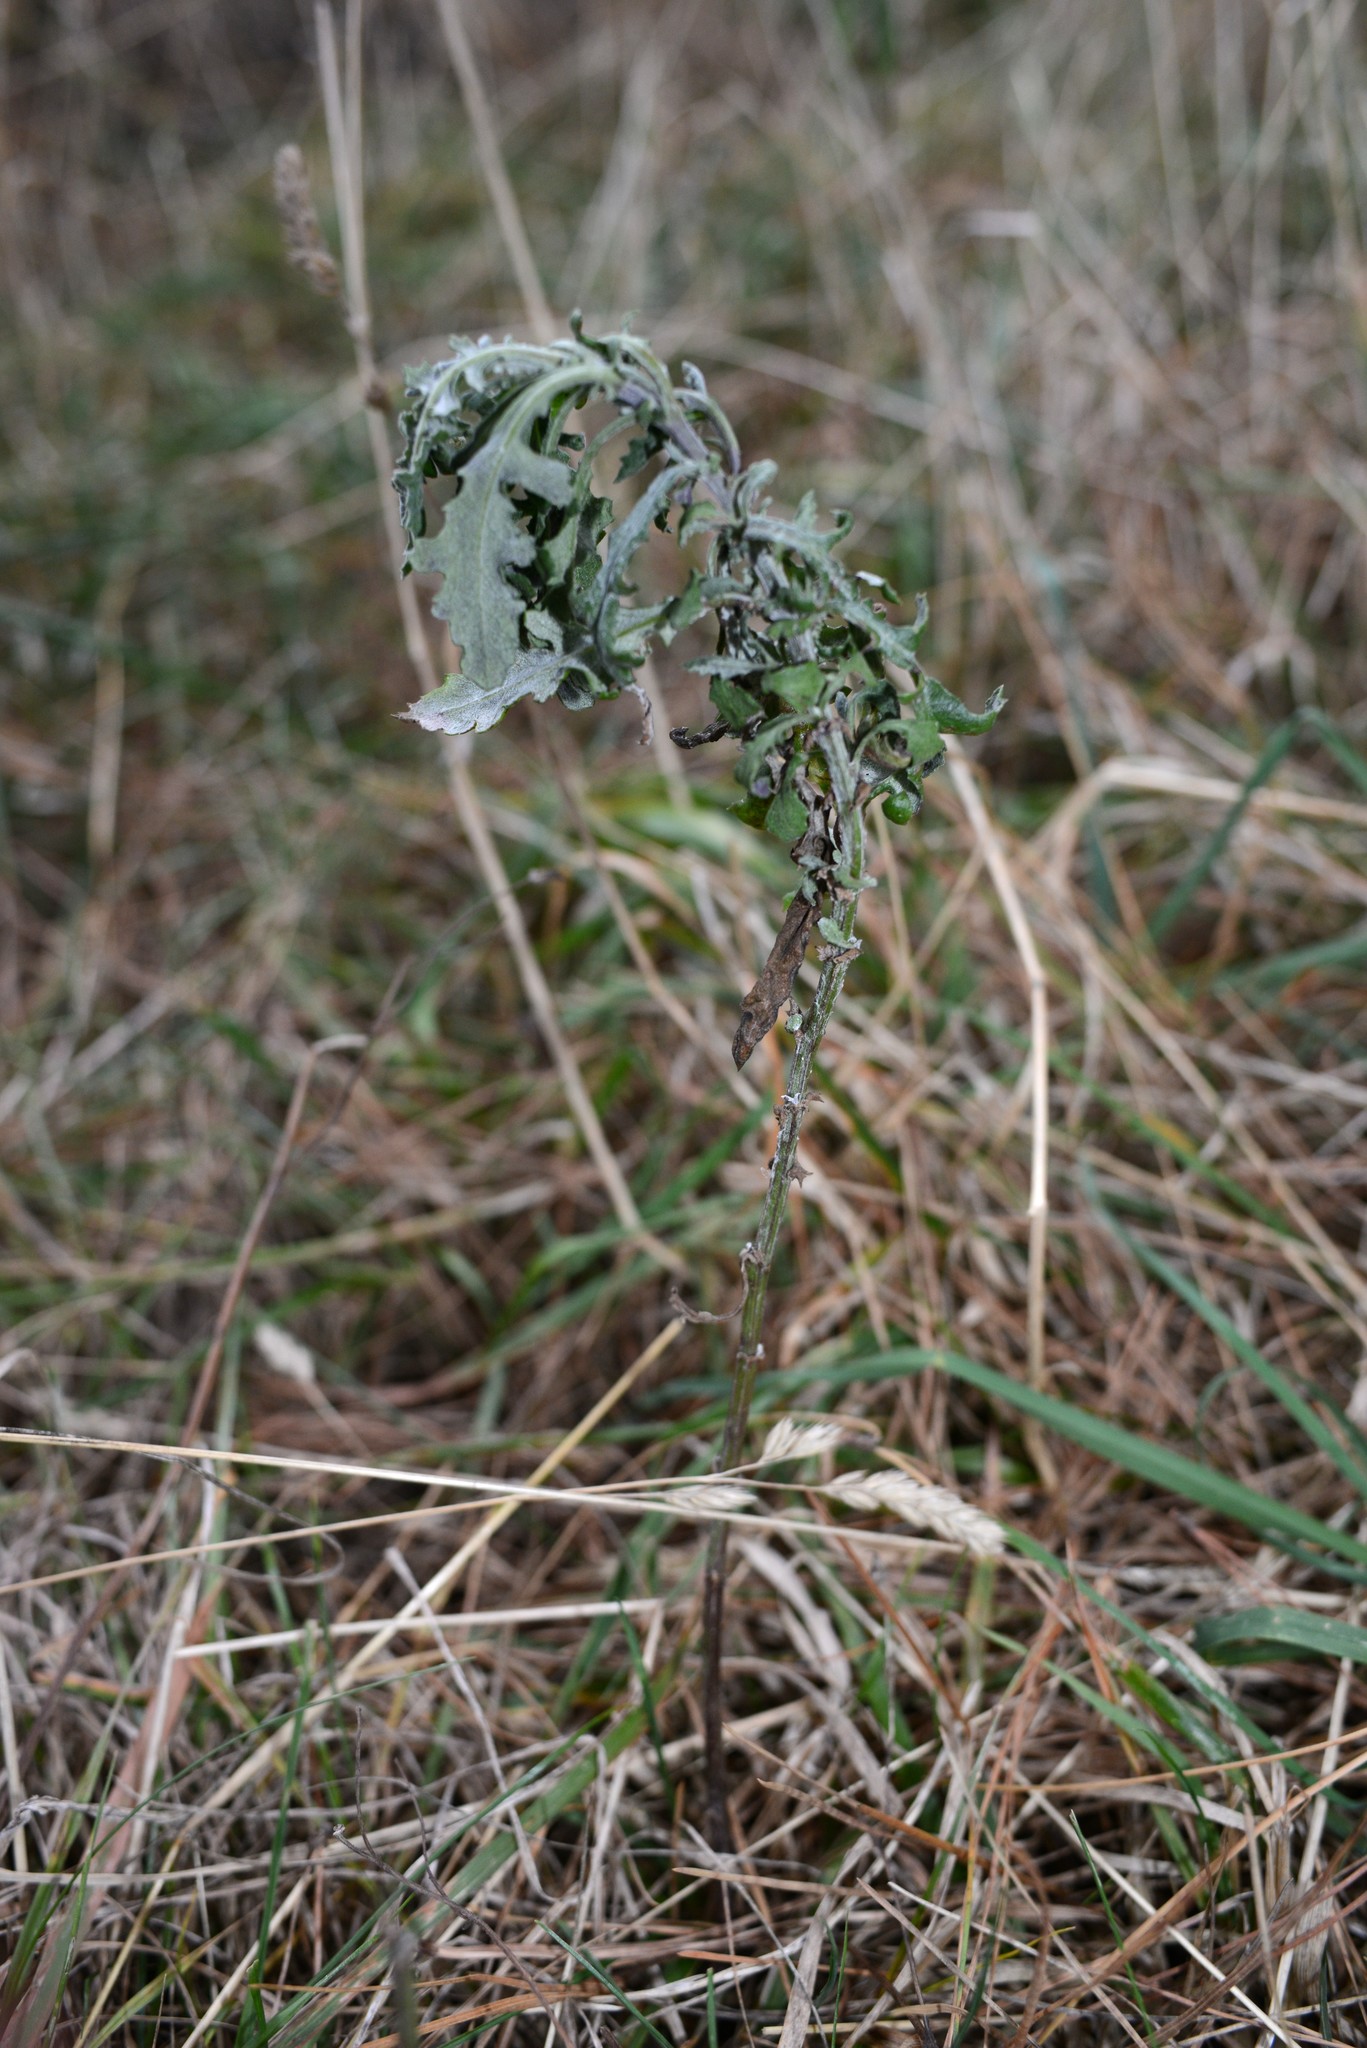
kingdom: Plantae
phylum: Tracheophyta
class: Magnoliopsida
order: Asterales
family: Asteraceae
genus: Senecio
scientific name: Senecio glomeratus
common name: Cutleaf burnweed
